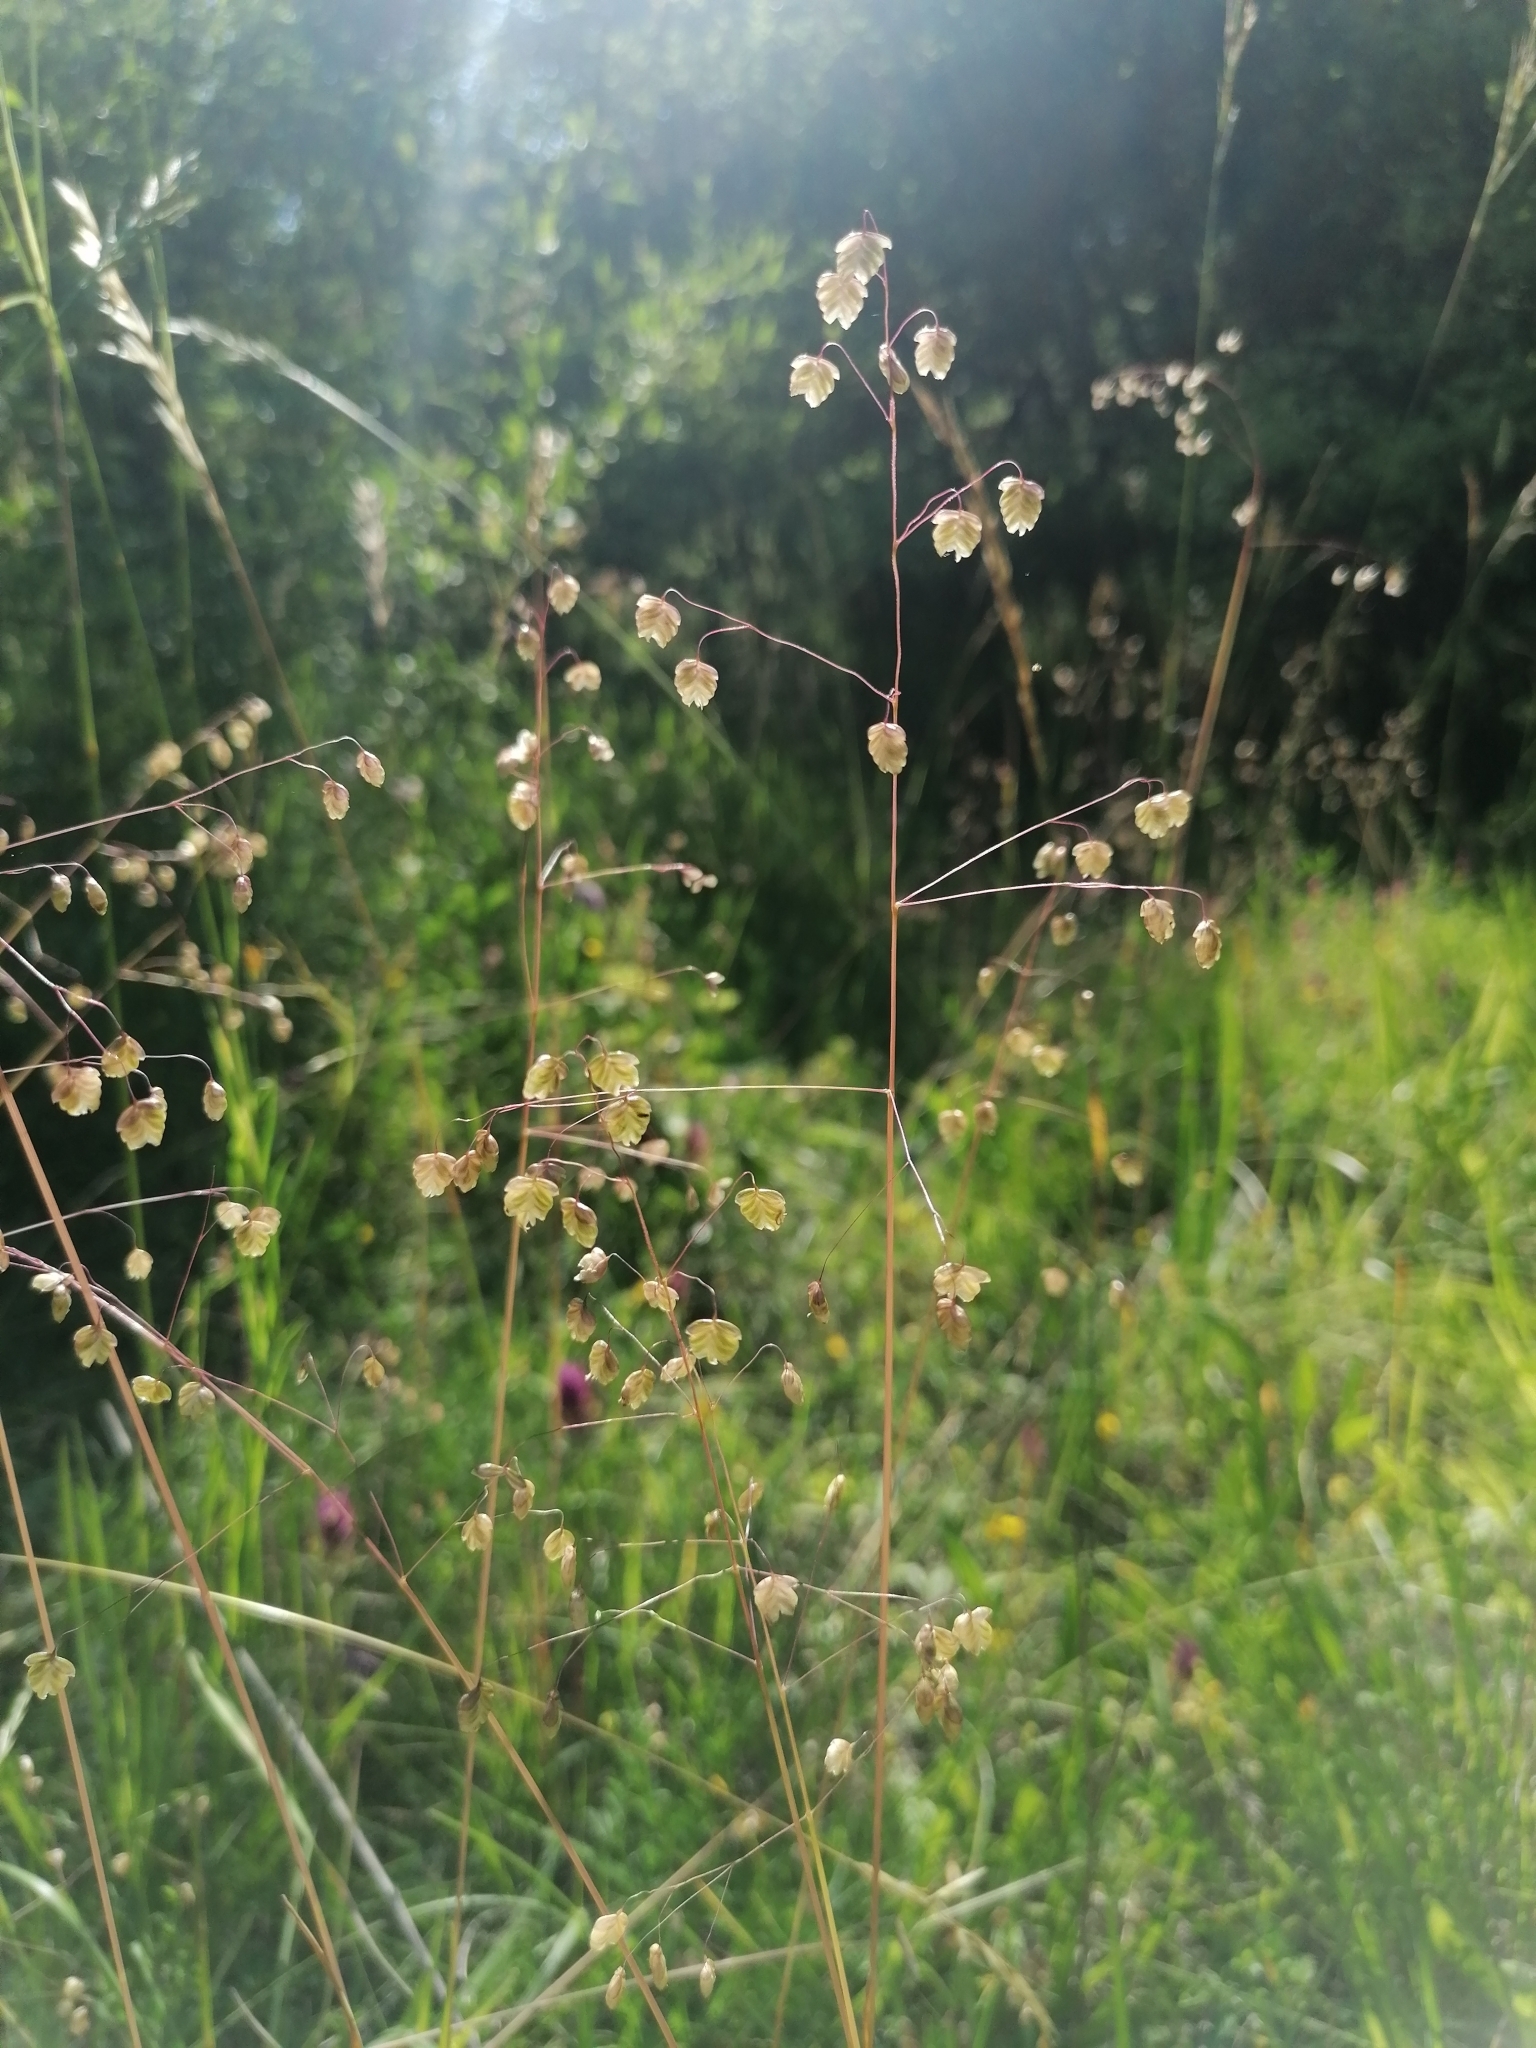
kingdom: Plantae
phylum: Tracheophyta
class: Liliopsida
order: Poales
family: Poaceae
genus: Briza
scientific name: Briza media
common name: Quaking grass
